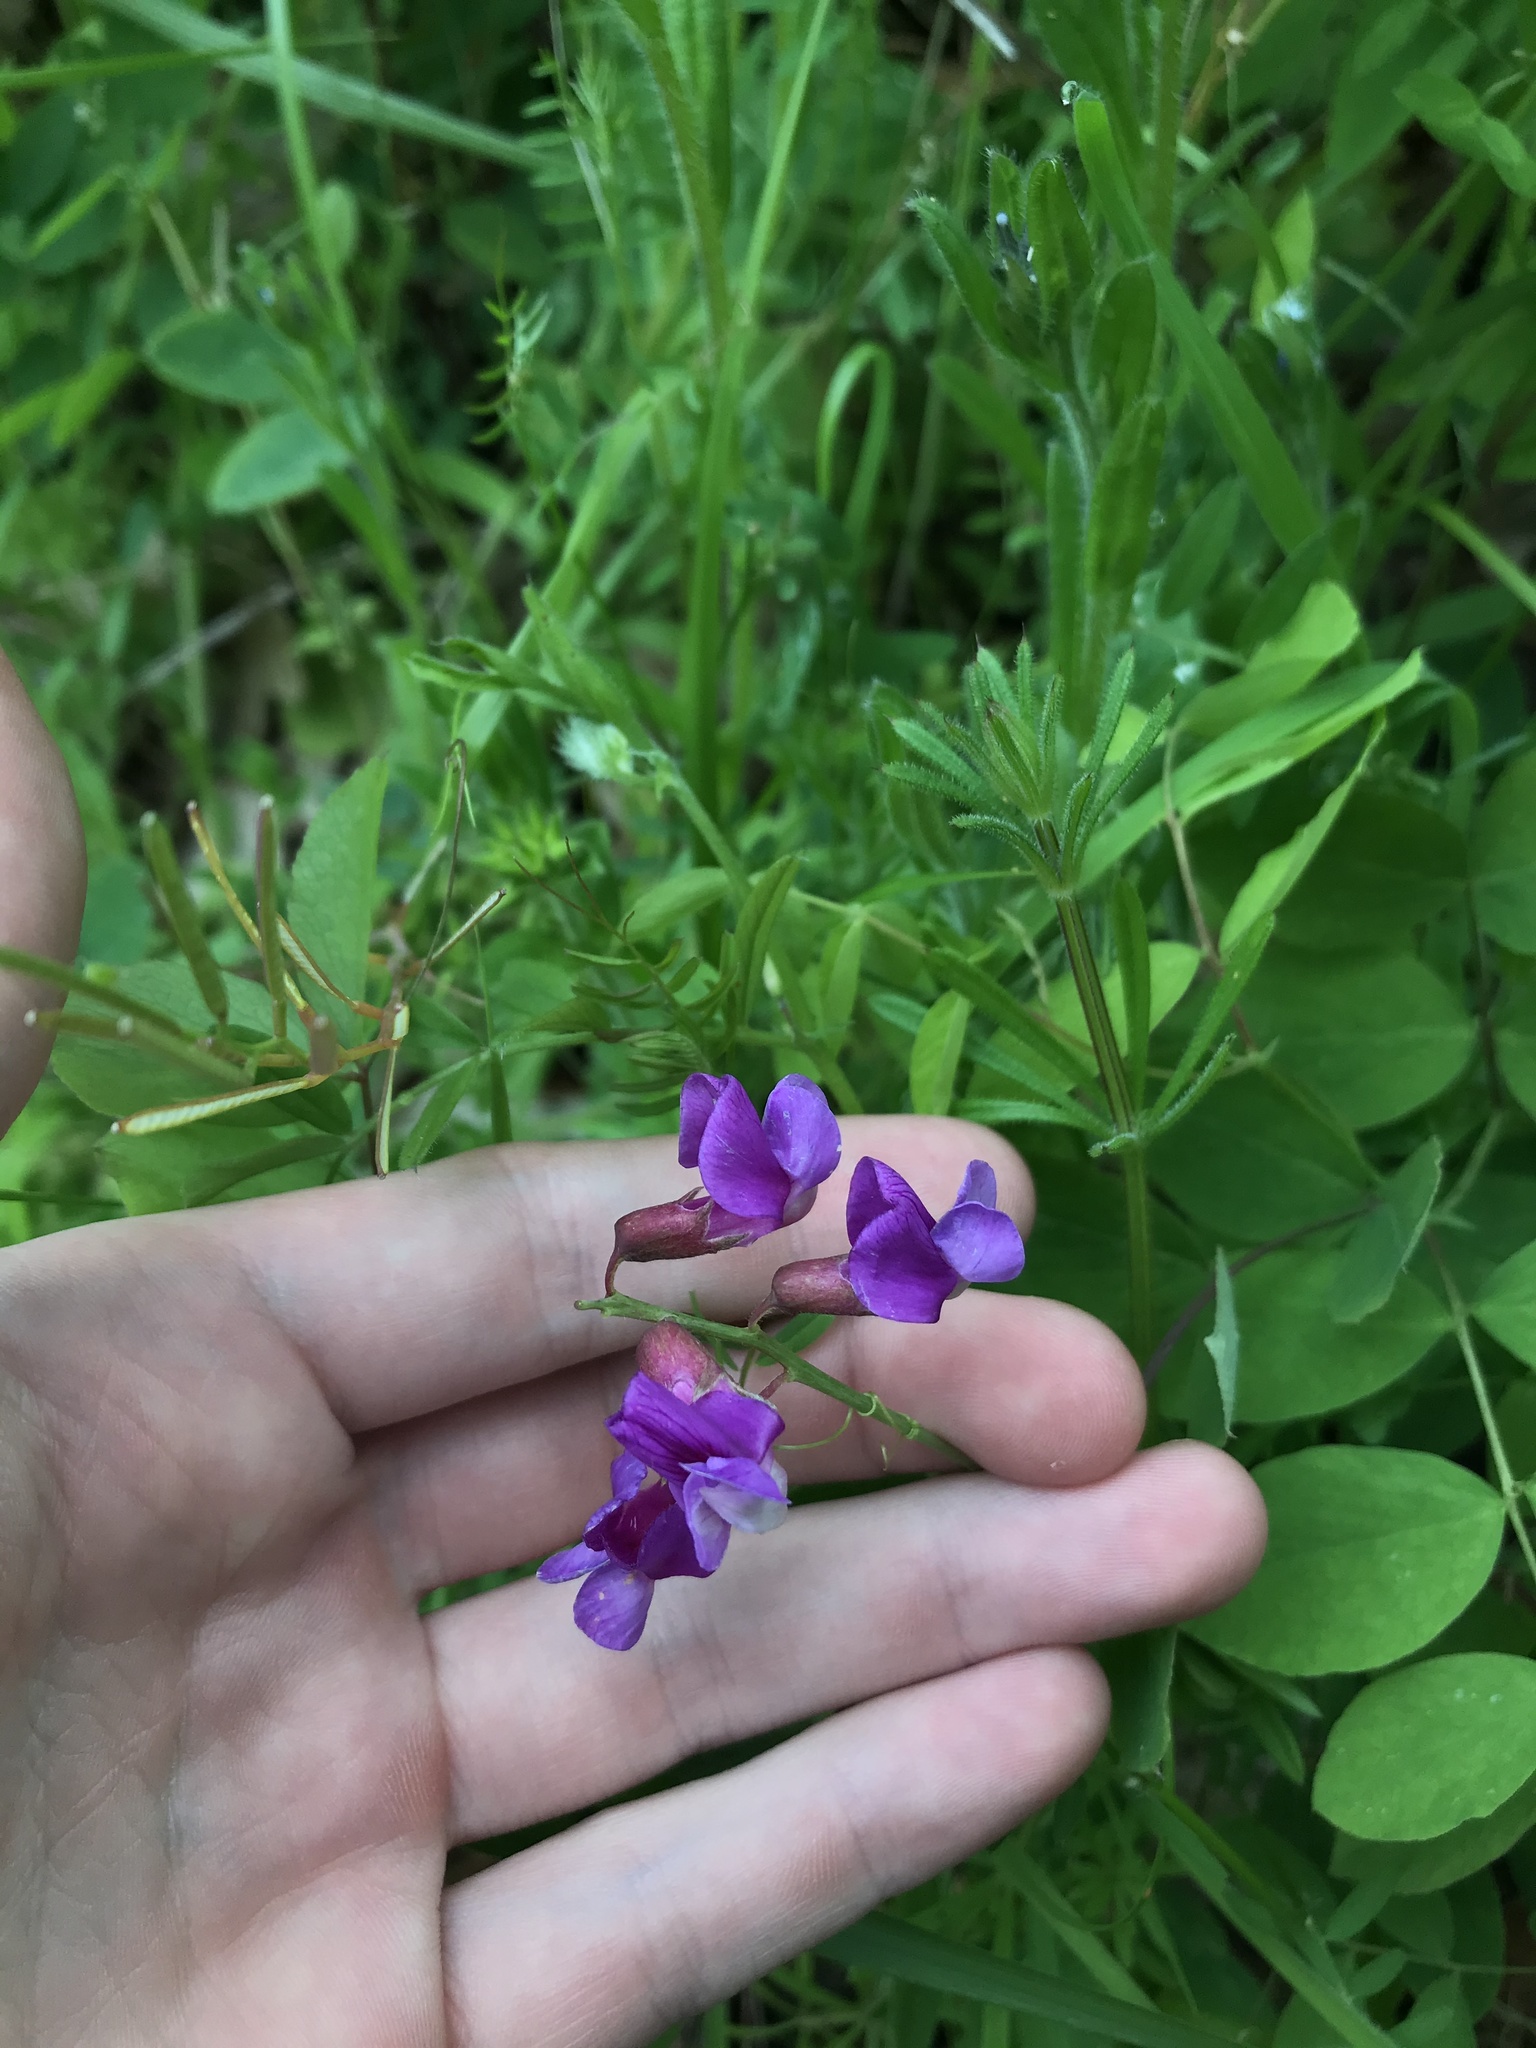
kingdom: Plantae
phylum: Tracheophyta
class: Magnoliopsida
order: Fabales
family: Fabaceae
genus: Lathyrus
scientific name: Lathyrus nevadensis
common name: Sierra nevada peavine
